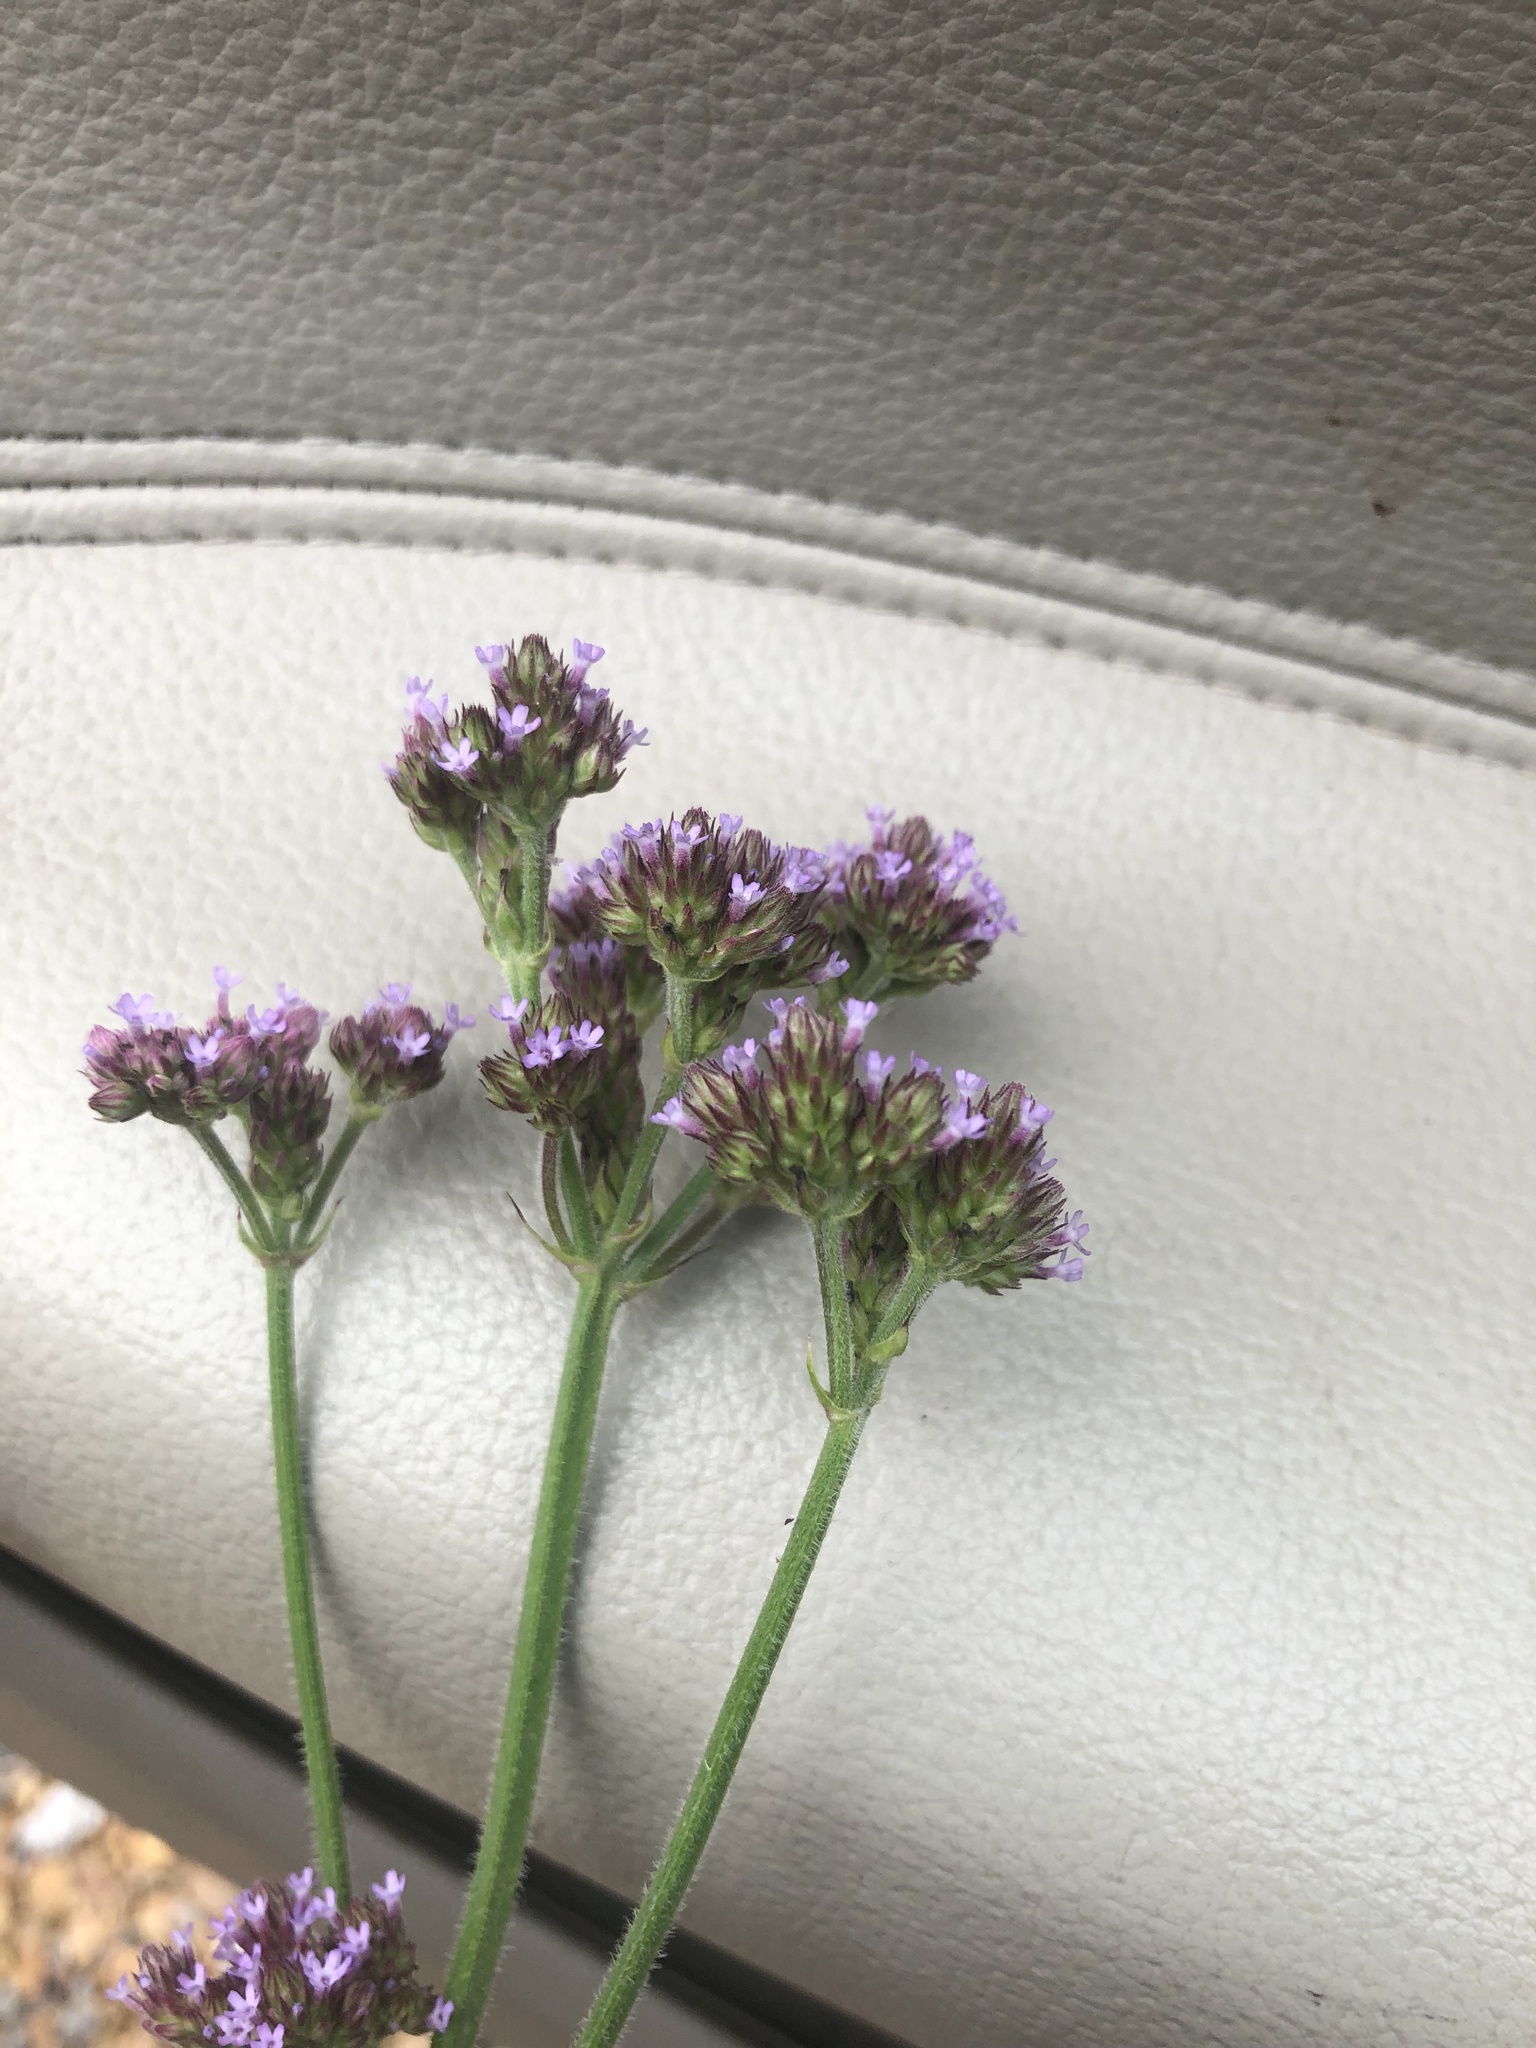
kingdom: Plantae
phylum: Tracheophyta
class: Magnoliopsida
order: Lamiales
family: Verbenaceae
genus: Verbena
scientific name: Verbena incompta
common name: Purpletop vervain
